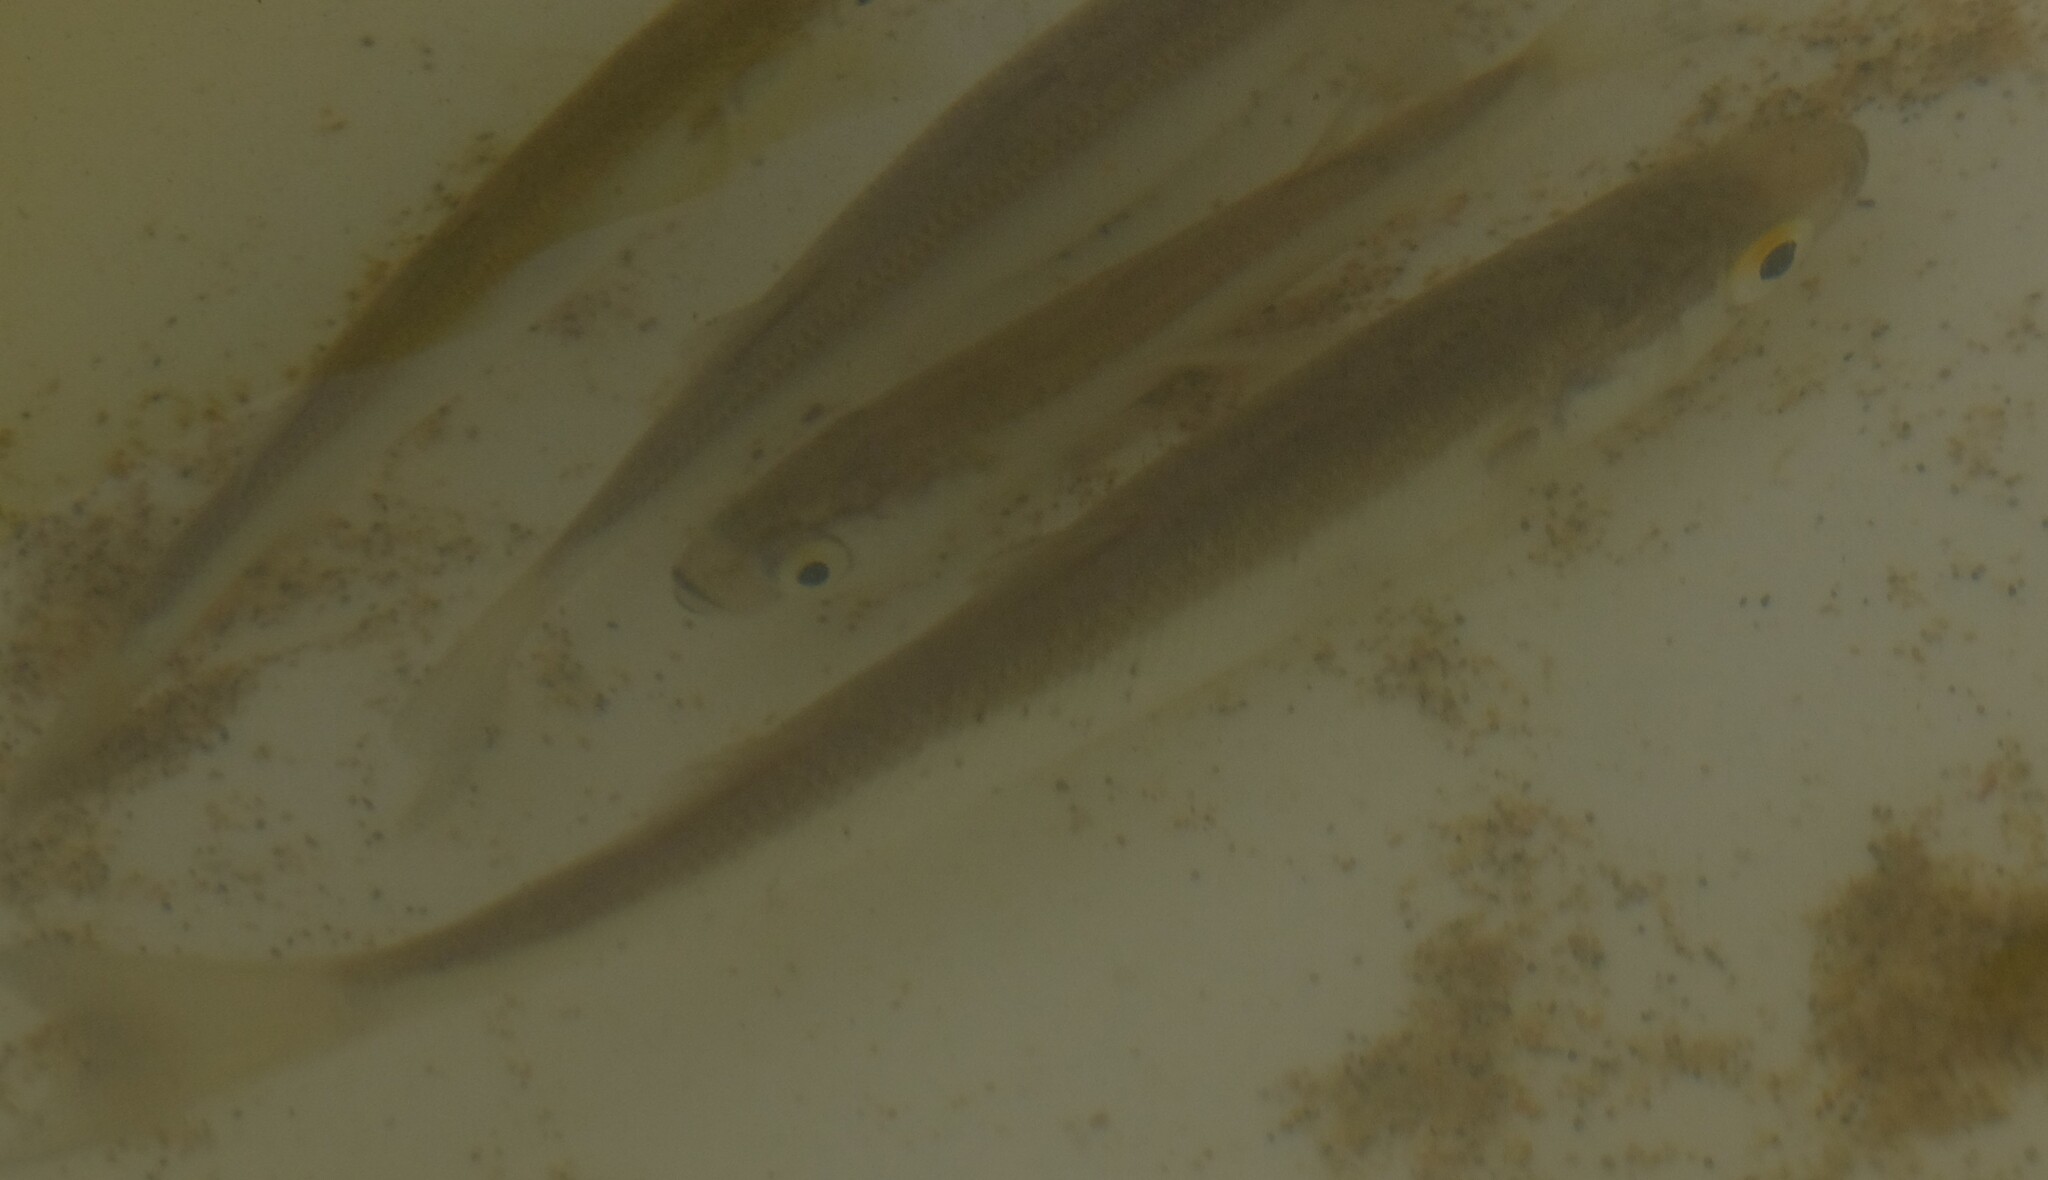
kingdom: Animalia
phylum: Chordata
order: Mugiliformes
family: Mugilidae
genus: Aldrichetta
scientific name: Aldrichetta forsteri
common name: Yellow-eye mullet
